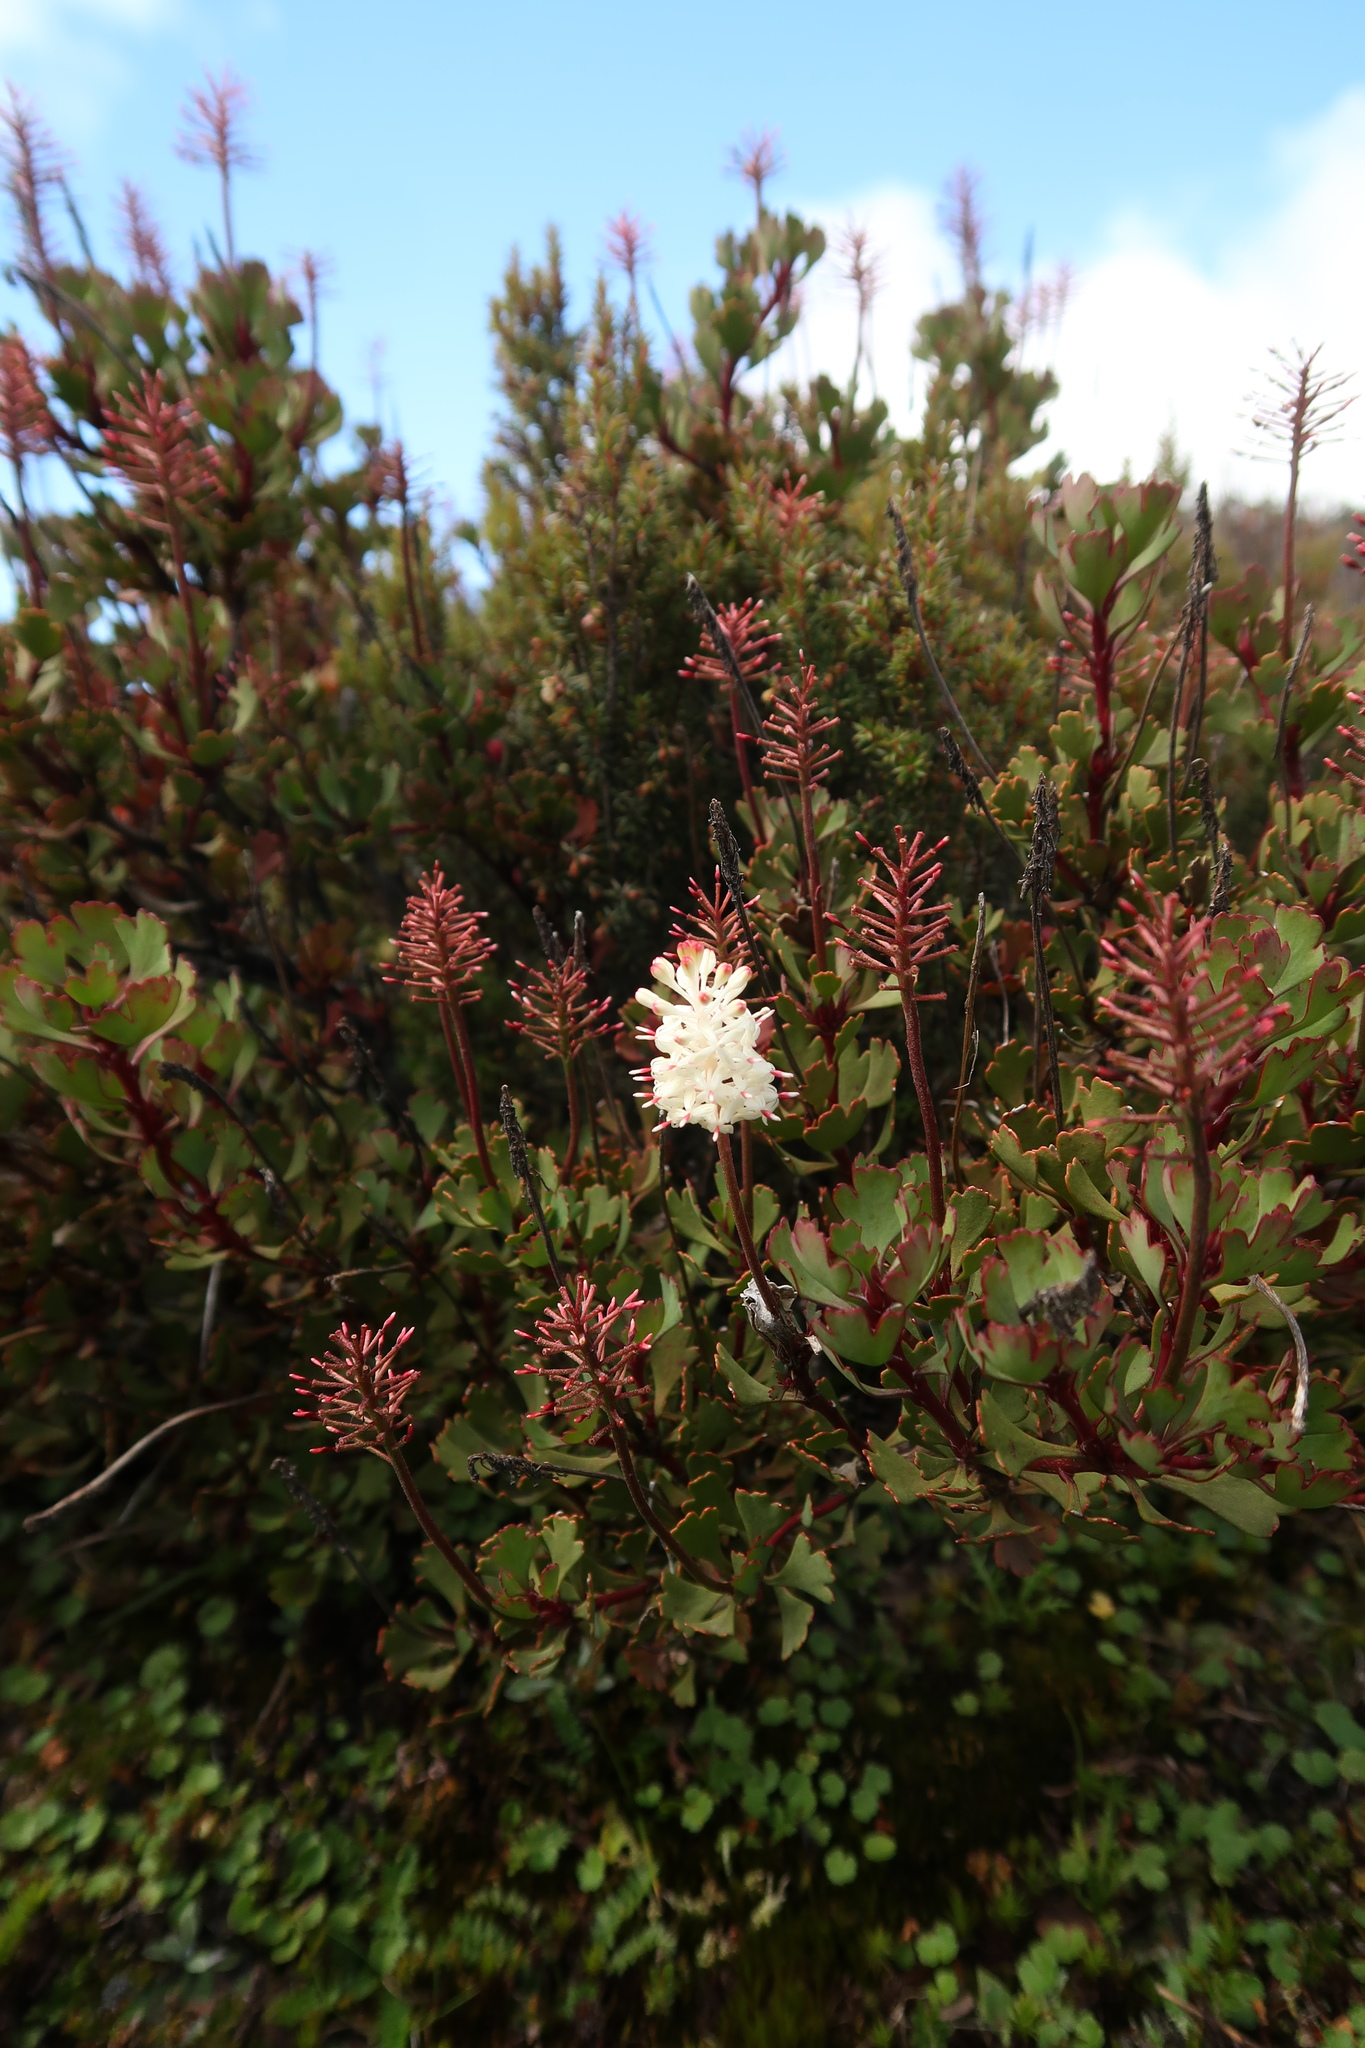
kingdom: Plantae
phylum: Tracheophyta
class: Magnoliopsida
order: Proteales
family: Proteaceae
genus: Bellendena
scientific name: Bellendena montana
